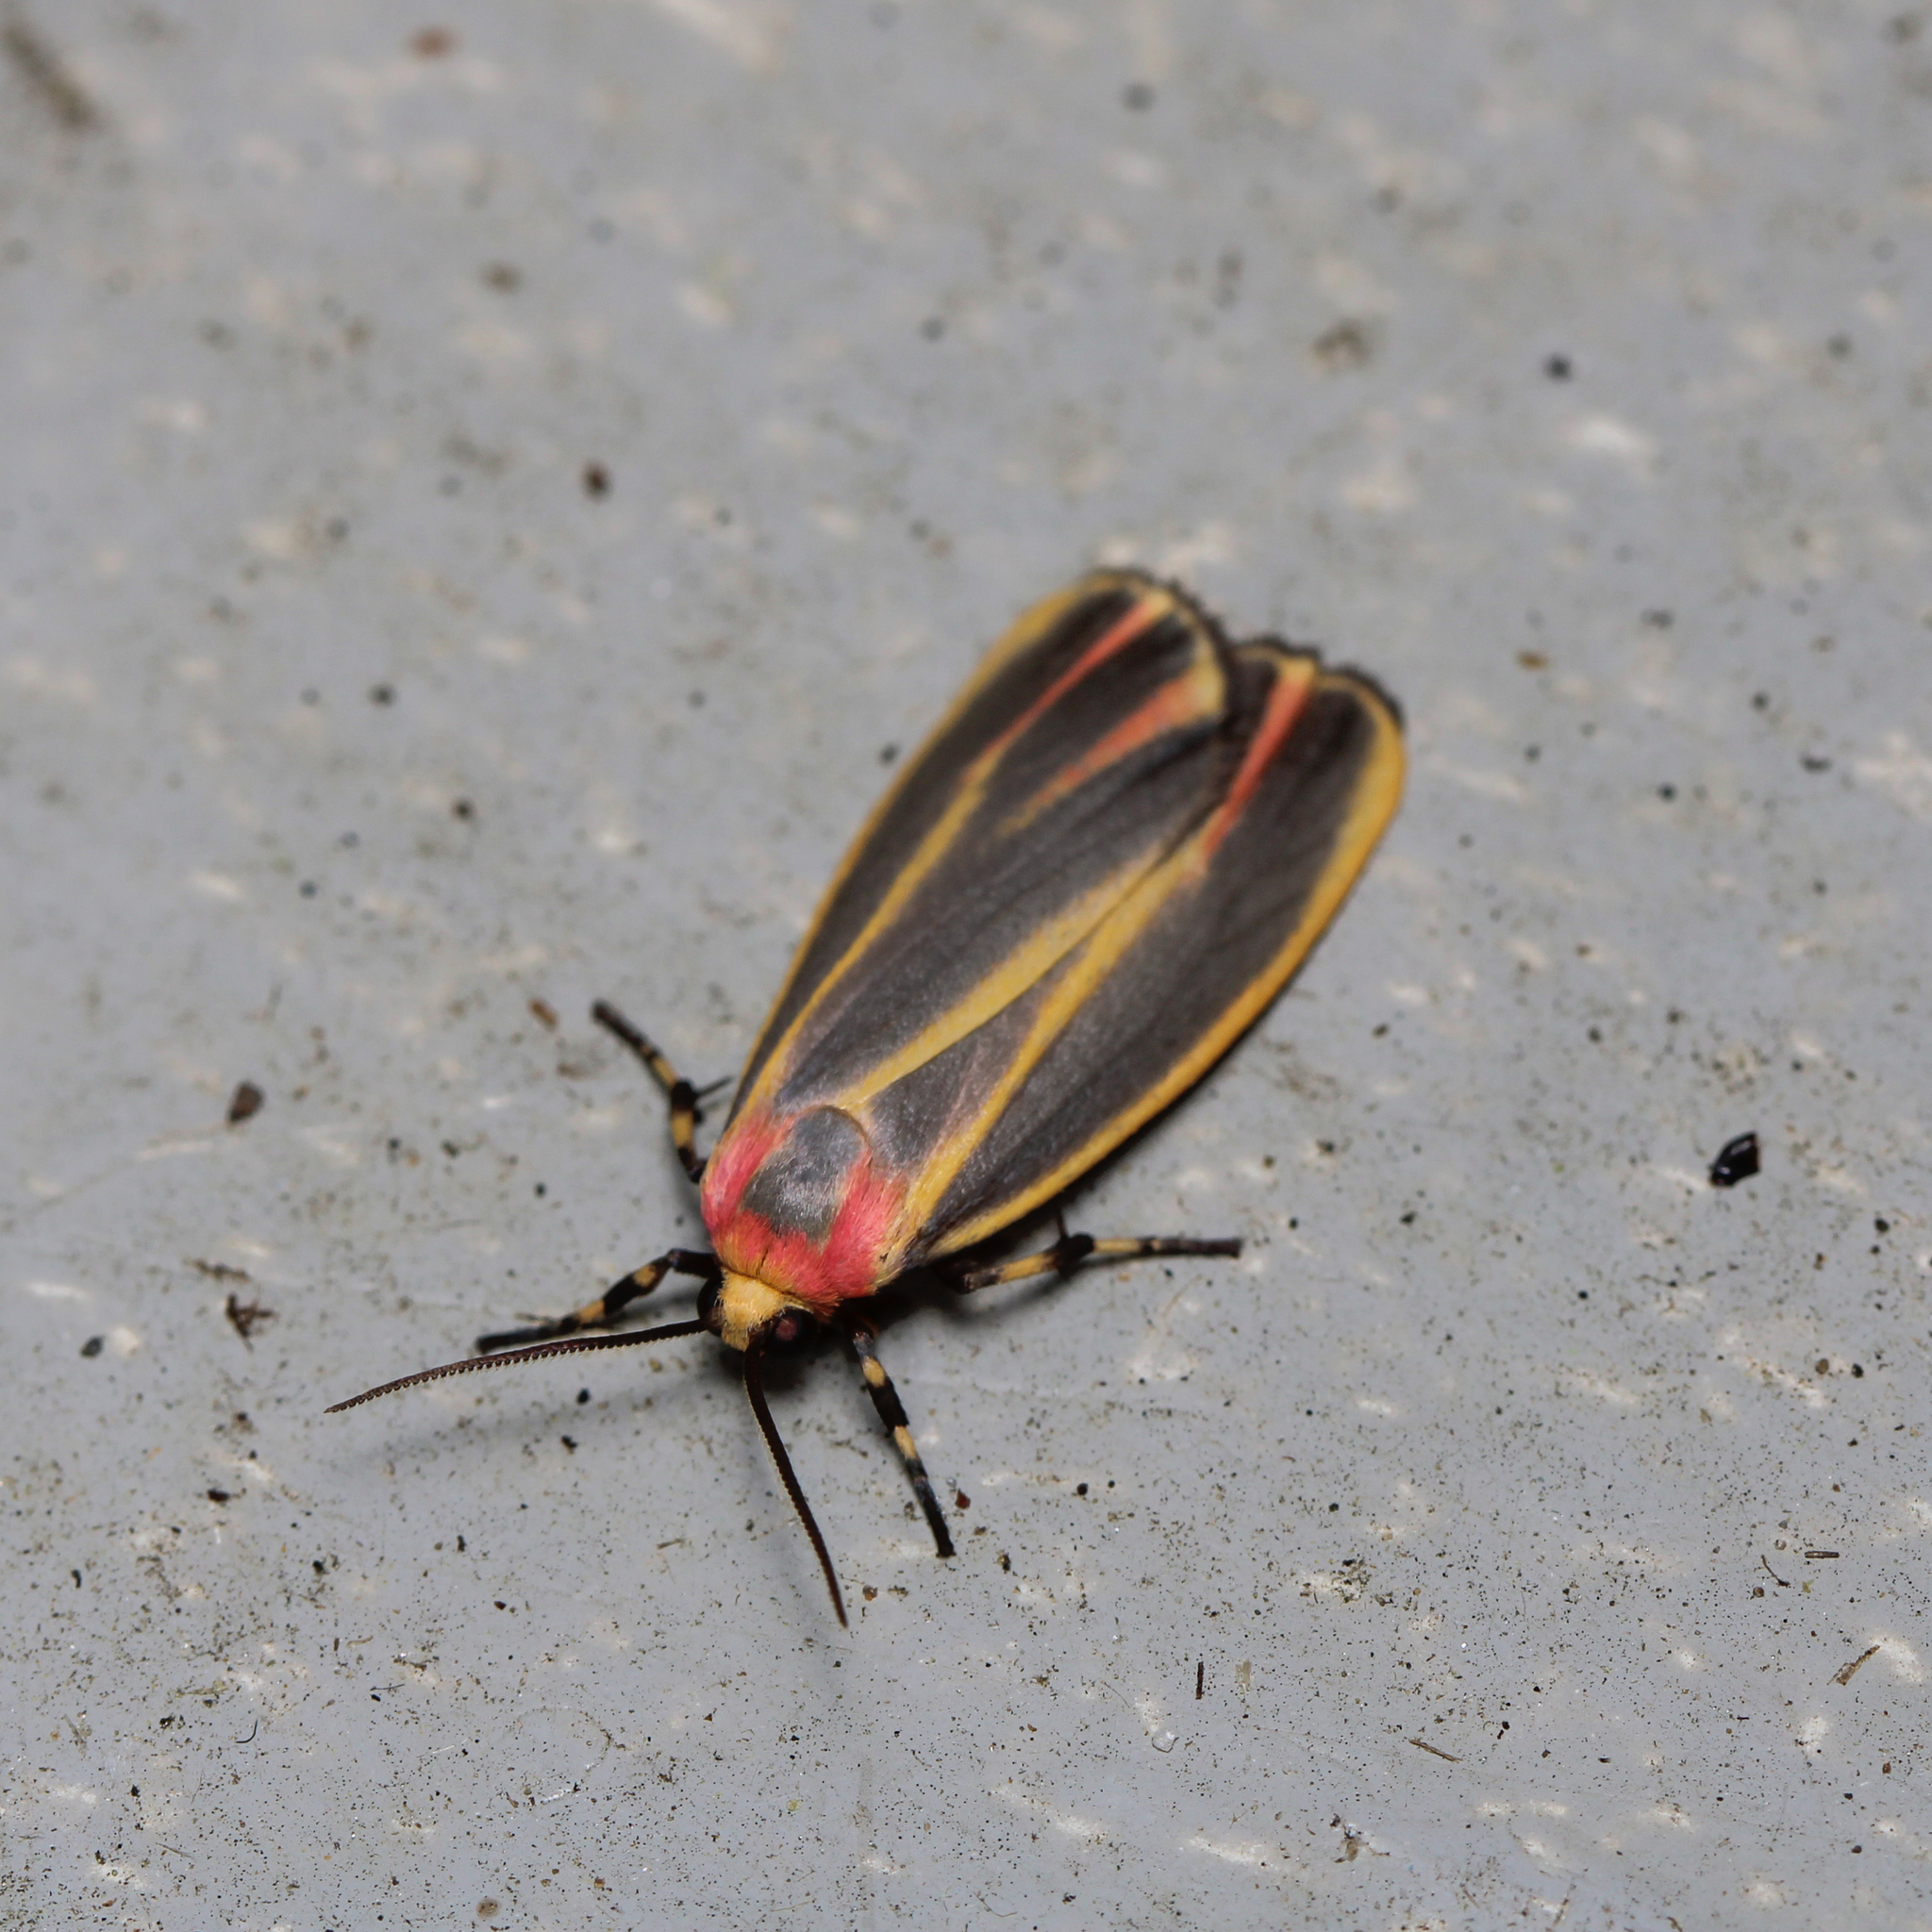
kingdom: Animalia
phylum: Arthropoda
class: Insecta
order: Lepidoptera
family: Erebidae
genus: Hypoprepia
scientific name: Hypoprepia fucosa
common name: Painted lichen moth
